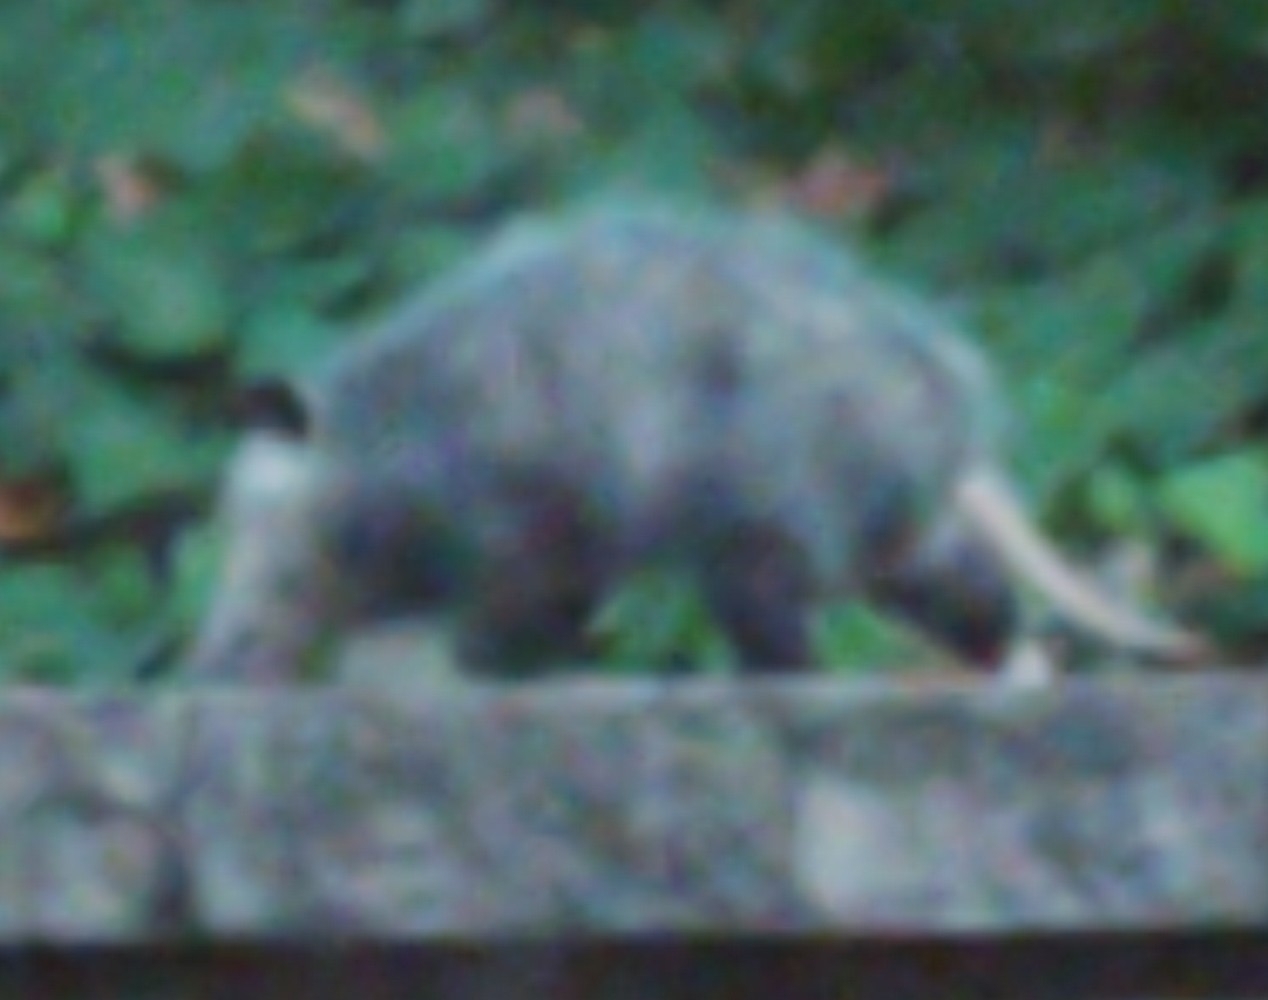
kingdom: Animalia
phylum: Chordata
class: Mammalia
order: Didelphimorphia
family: Didelphidae
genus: Didelphis
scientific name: Didelphis virginiana
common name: Virginia opossum
